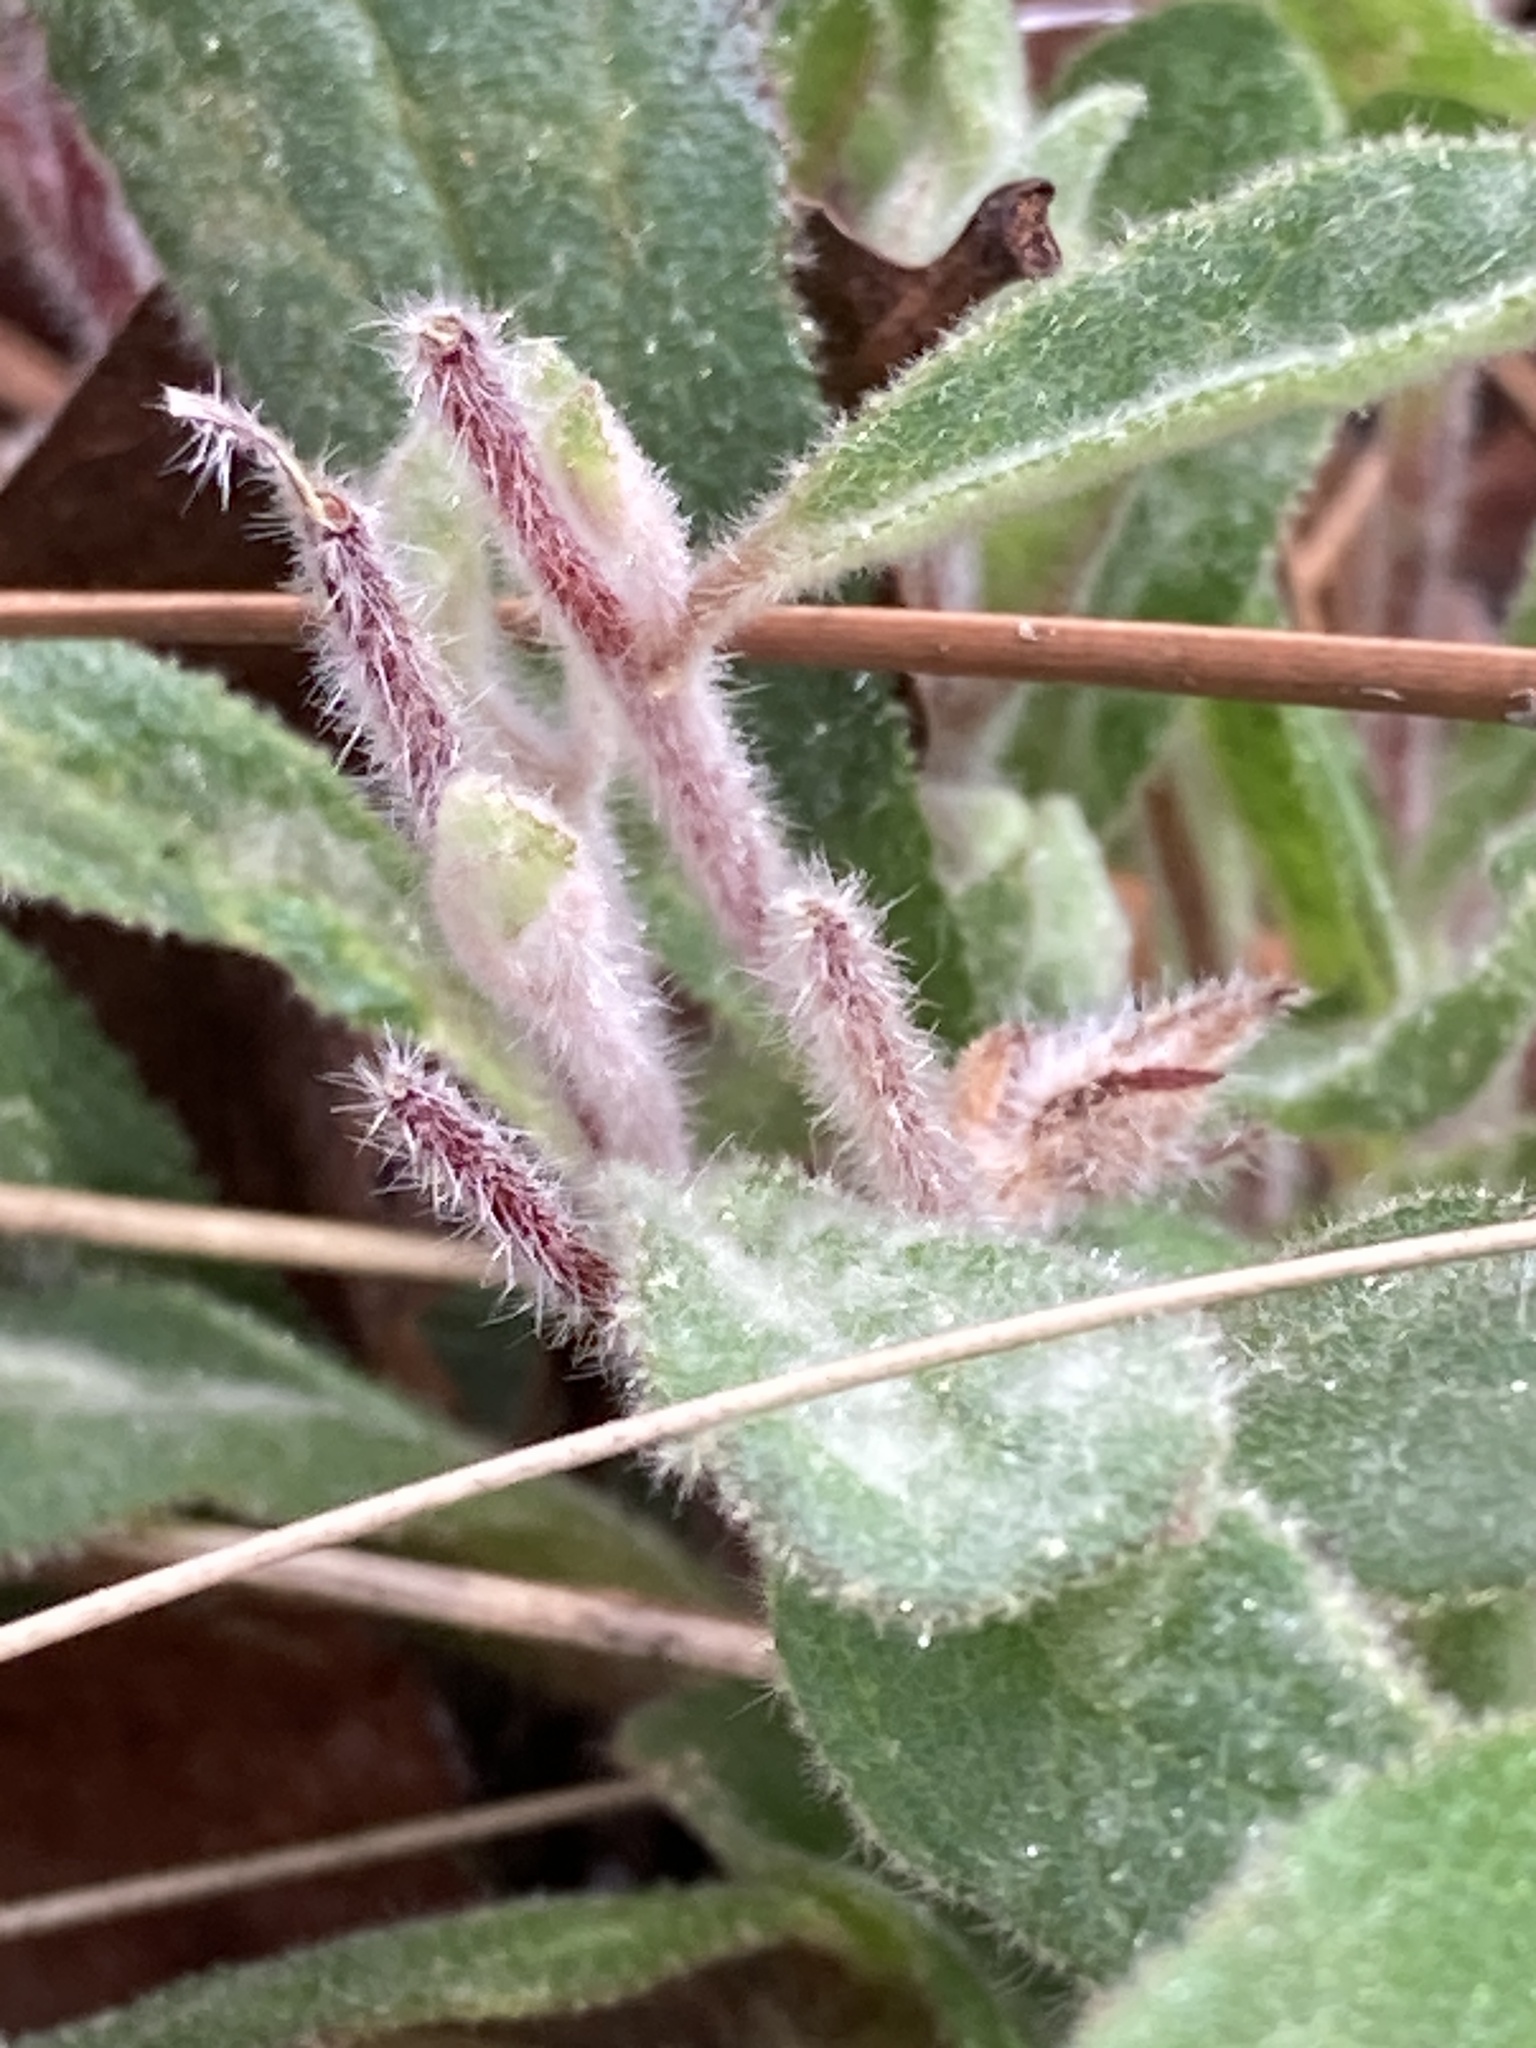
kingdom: Plantae
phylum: Tracheophyta
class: Magnoliopsida
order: Malvales
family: Cistaceae
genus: Crocanthemum
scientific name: Crocanthemum carolinianum
